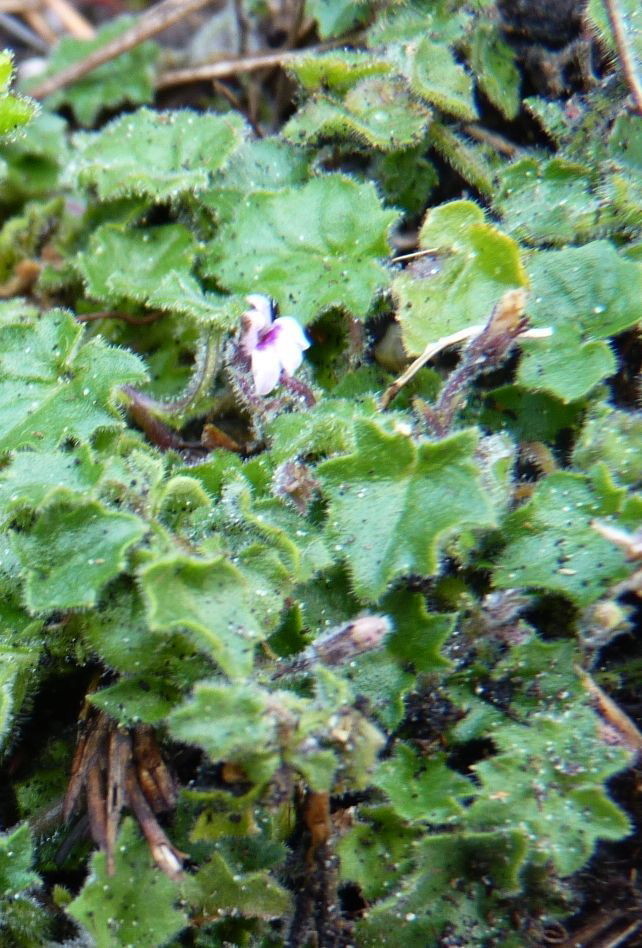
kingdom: Plantae
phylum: Tracheophyta
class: Magnoliopsida
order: Asterales
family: Campanulaceae
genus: Lobelia
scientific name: Lobelia ardisiandroides
